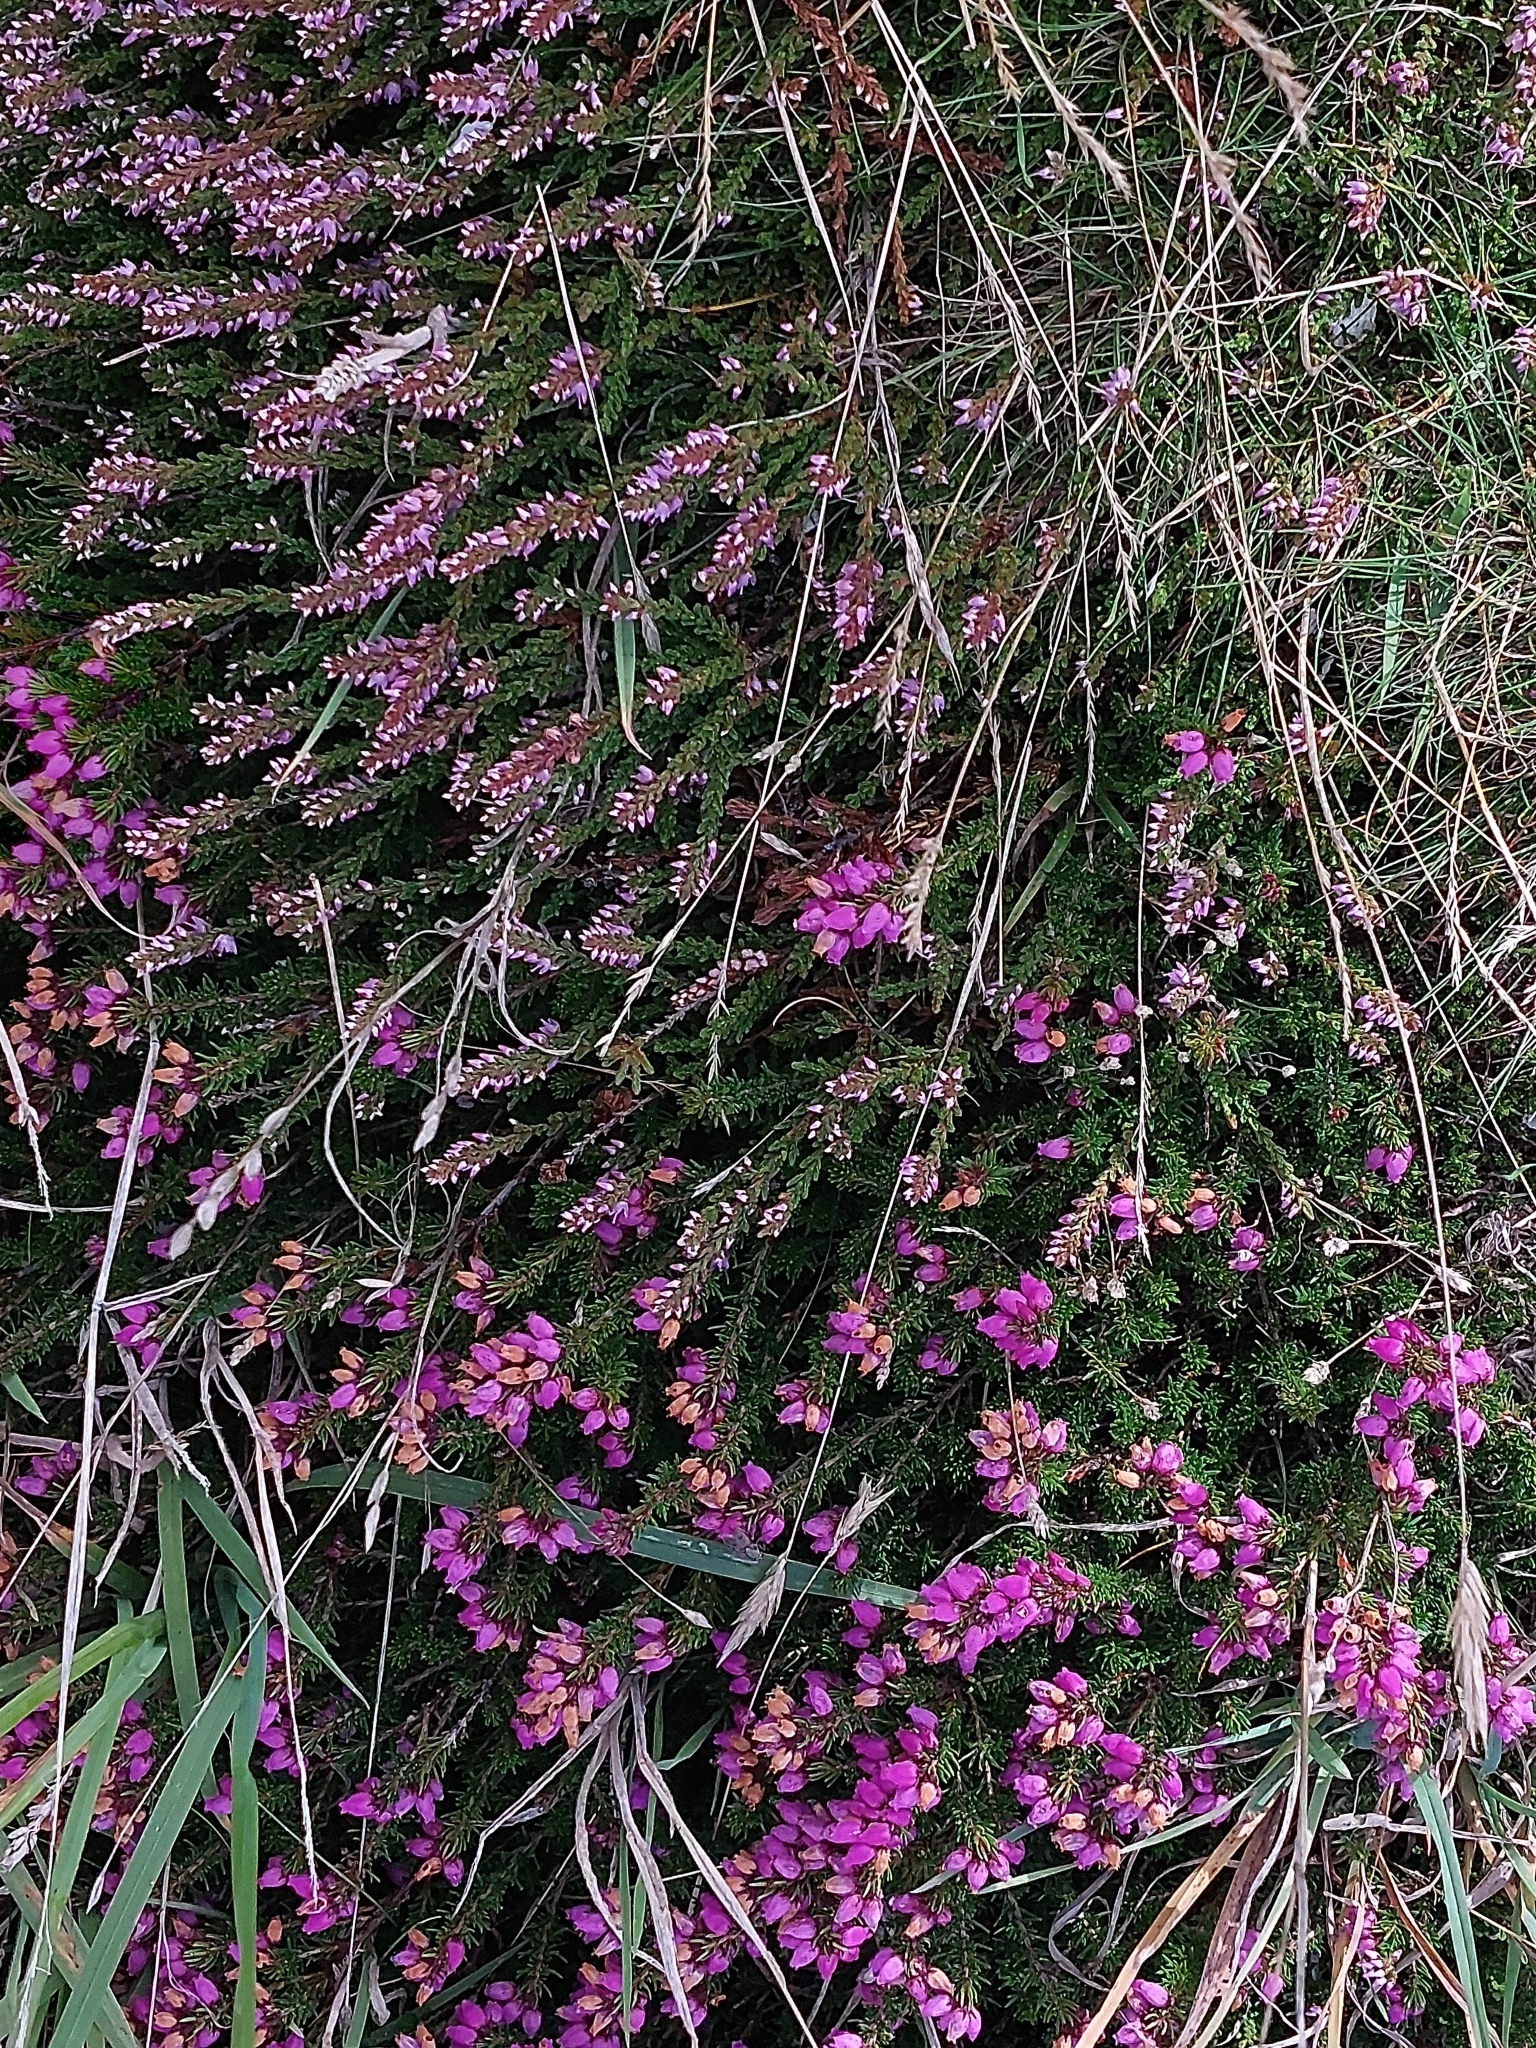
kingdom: Plantae
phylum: Tracheophyta
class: Magnoliopsida
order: Ericales
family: Ericaceae
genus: Erica
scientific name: Erica cinerea
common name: Bell heather
